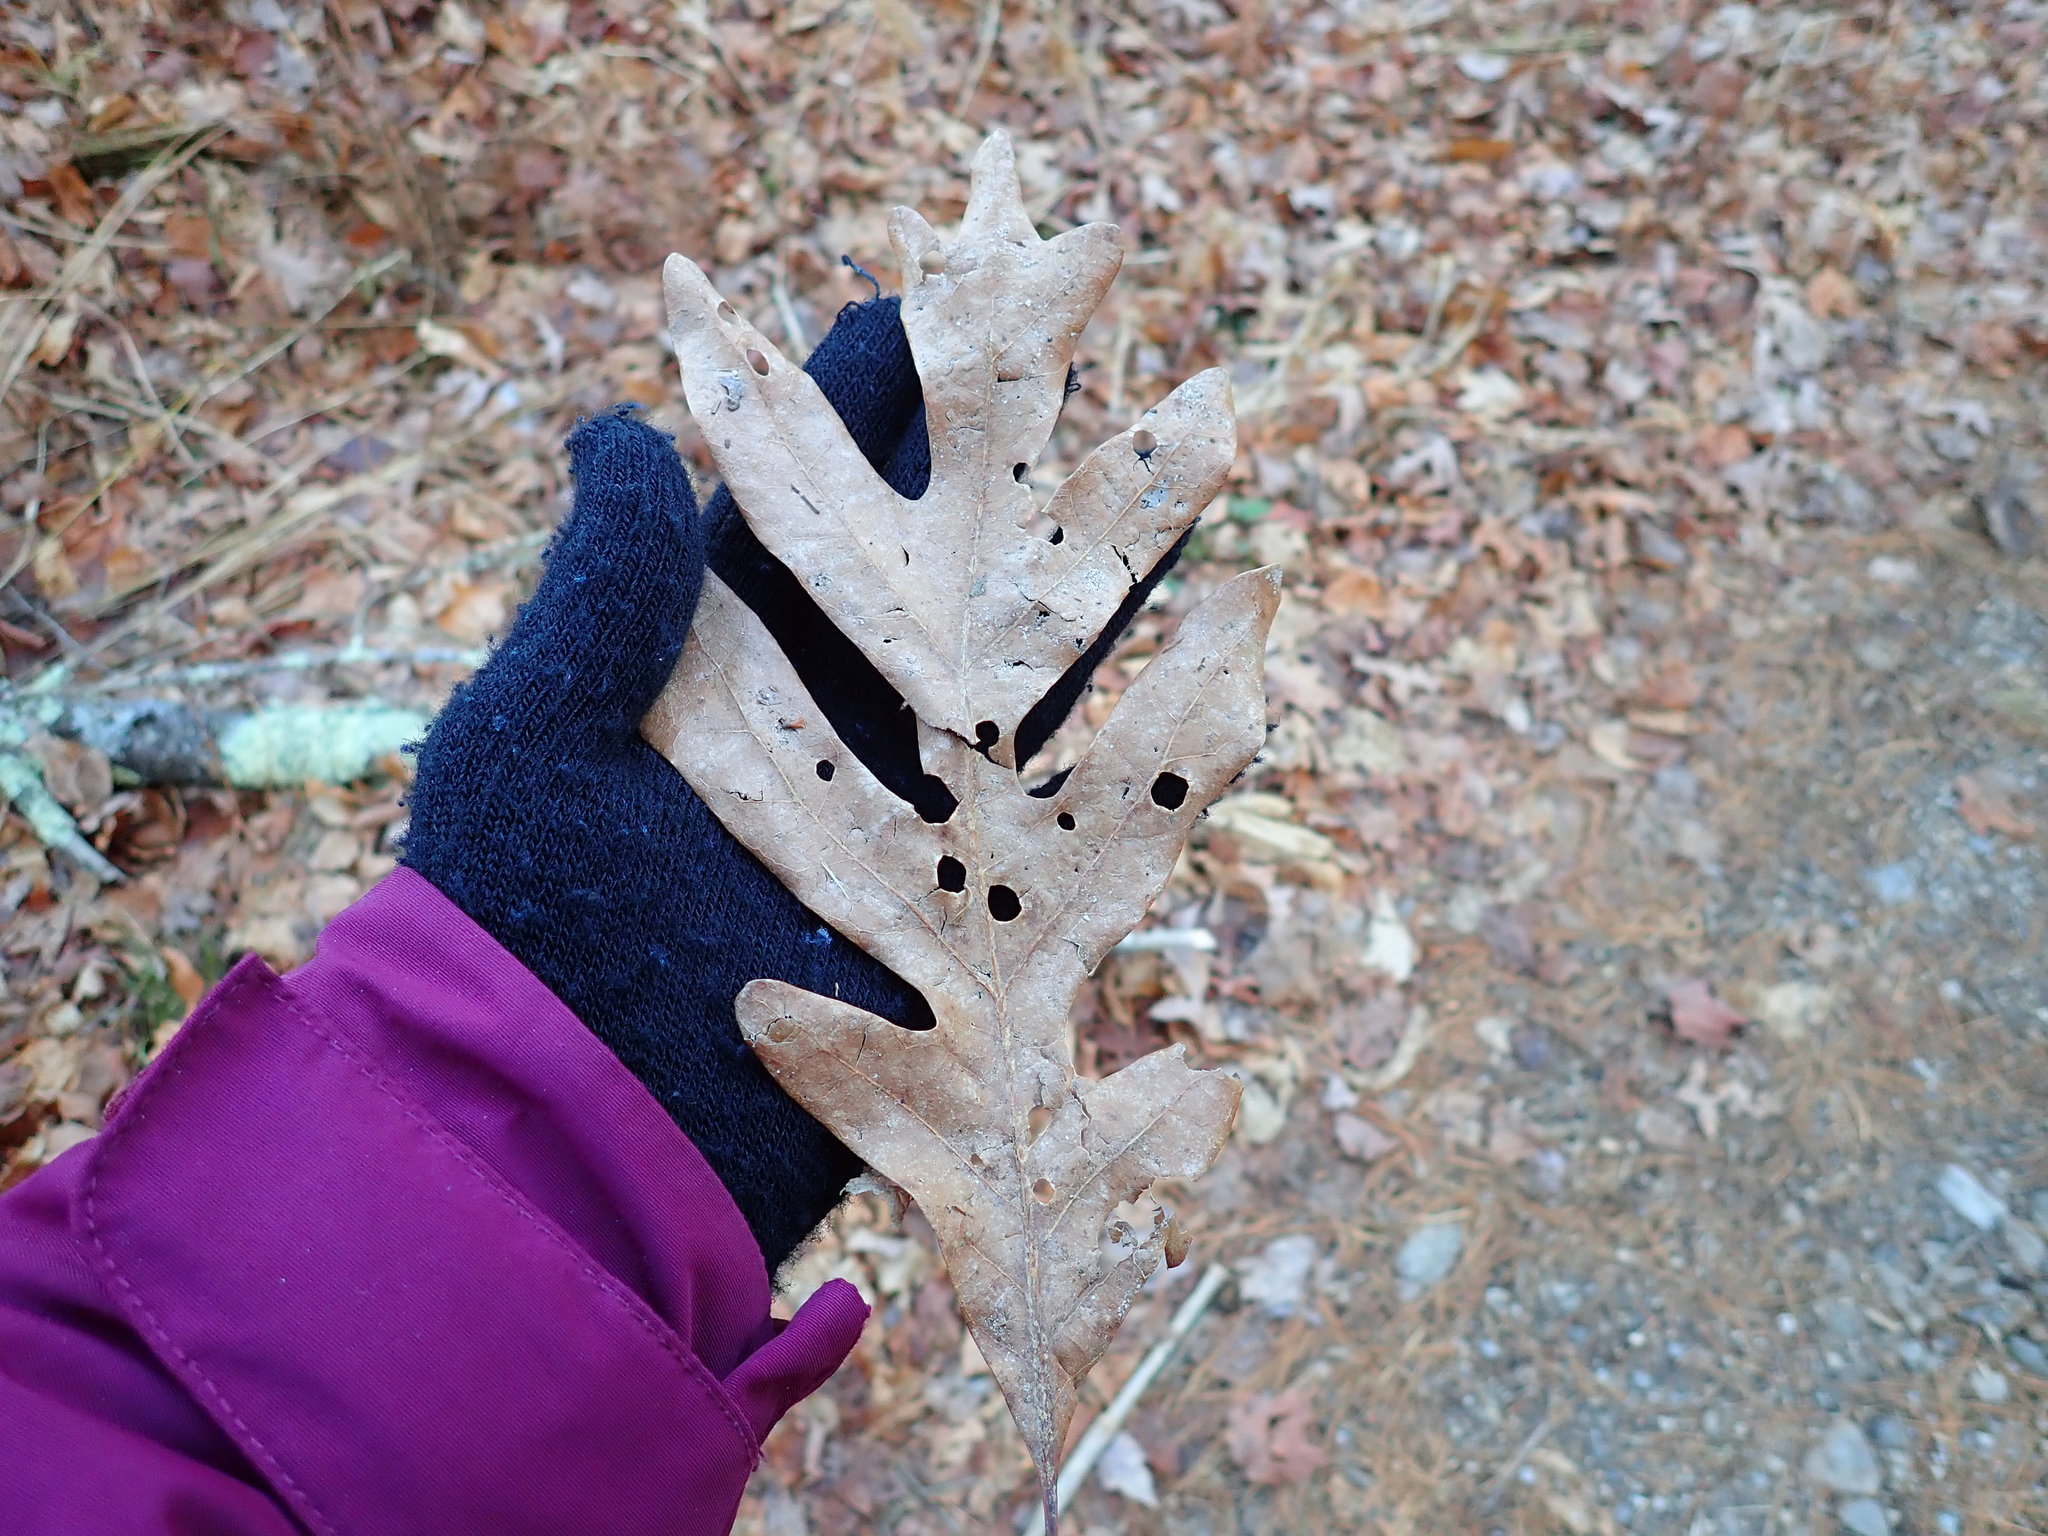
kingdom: Plantae
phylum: Tracheophyta
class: Magnoliopsida
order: Fagales
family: Fagaceae
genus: Quercus
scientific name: Quercus alba
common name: White oak
